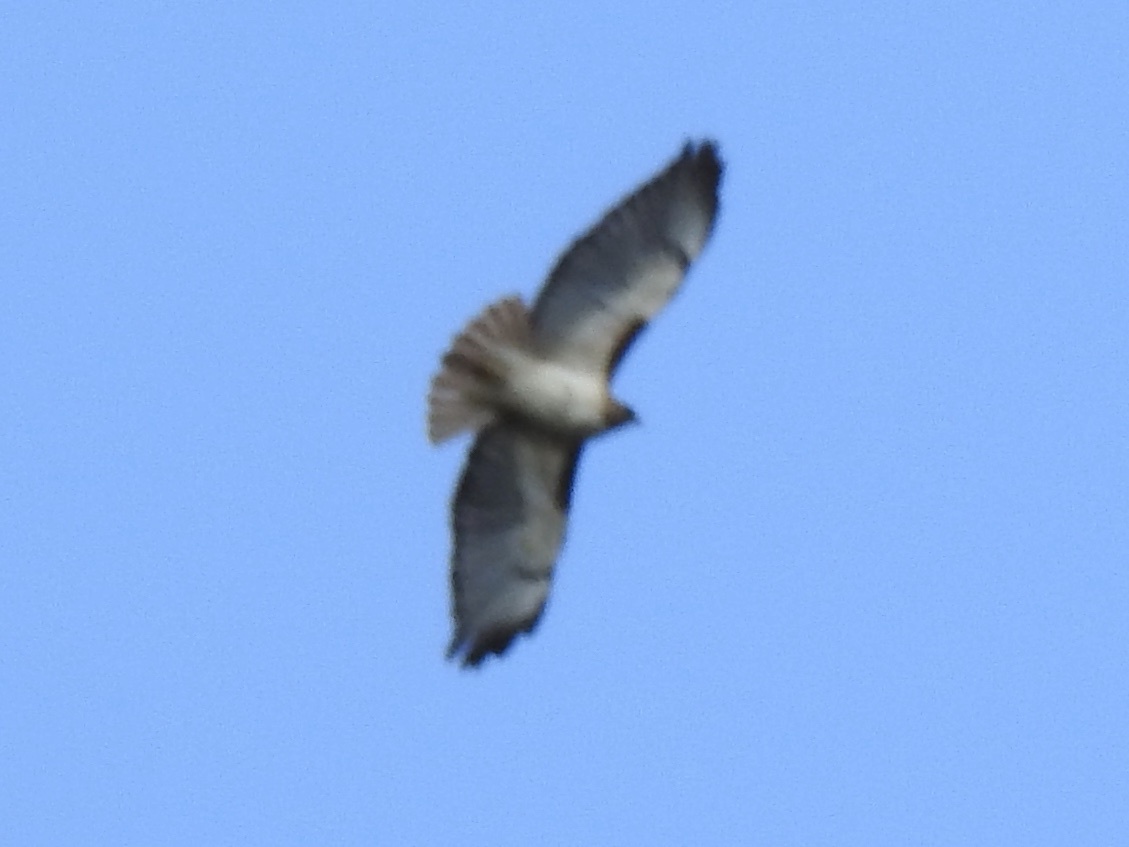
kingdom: Animalia
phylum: Chordata
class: Aves
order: Accipitriformes
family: Accipitridae
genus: Buteo
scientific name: Buteo jamaicensis
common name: Red-tailed hawk
